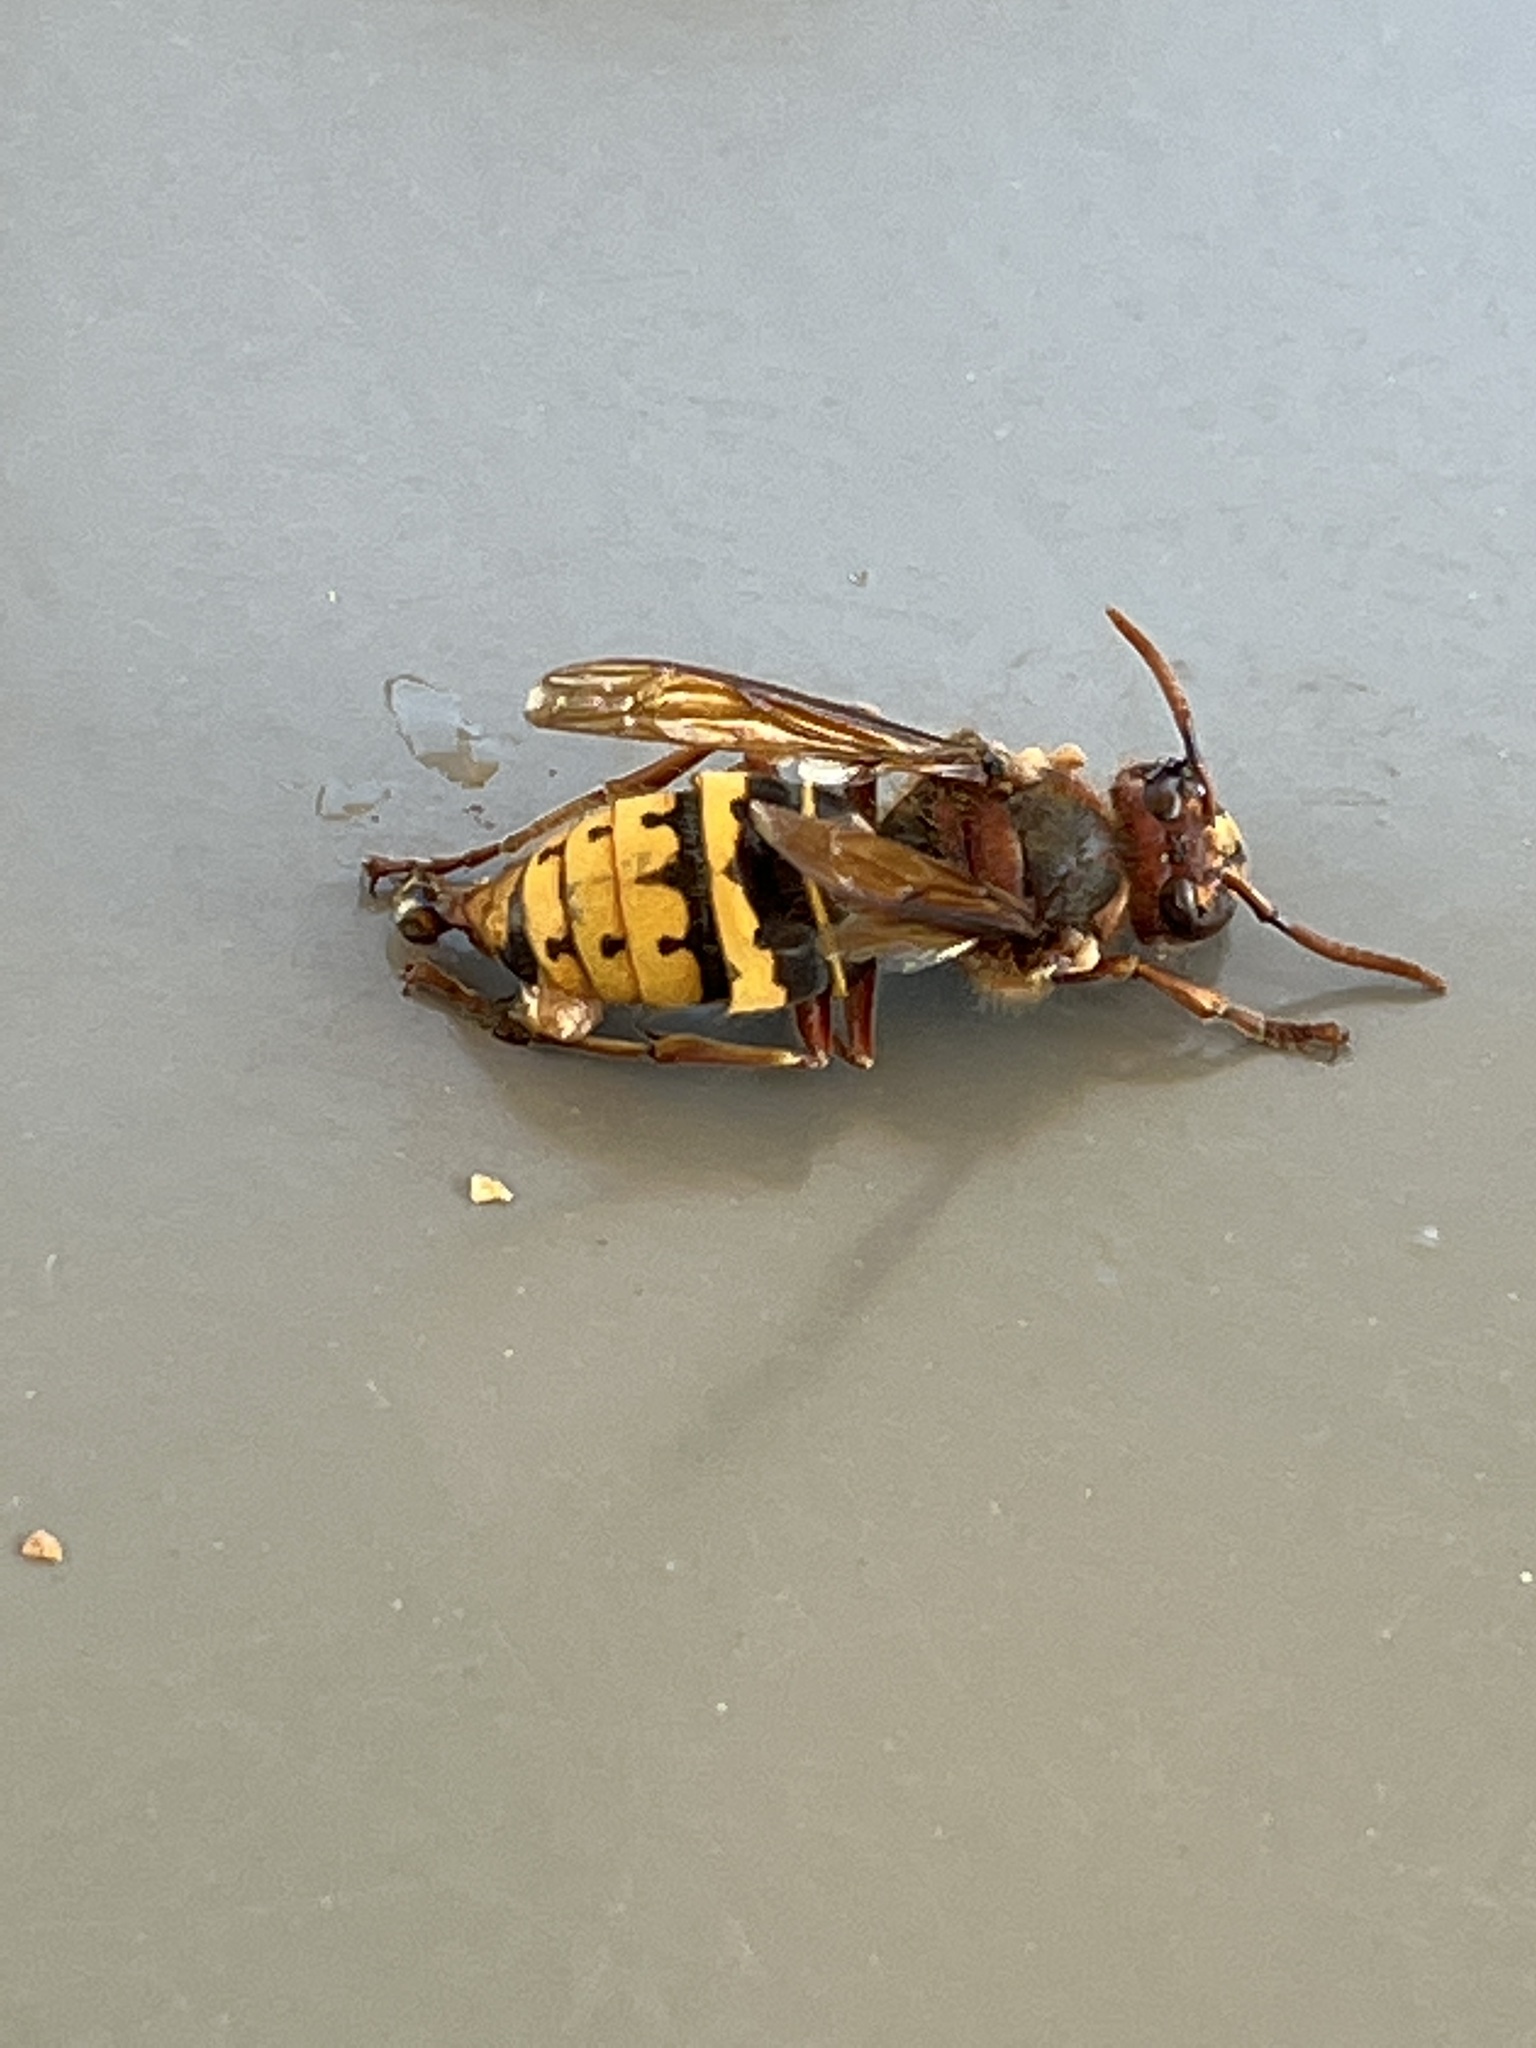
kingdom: Animalia
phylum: Arthropoda
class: Insecta
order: Hymenoptera
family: Vespidae
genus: Vespa
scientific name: Vespa crabro
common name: Hornet
